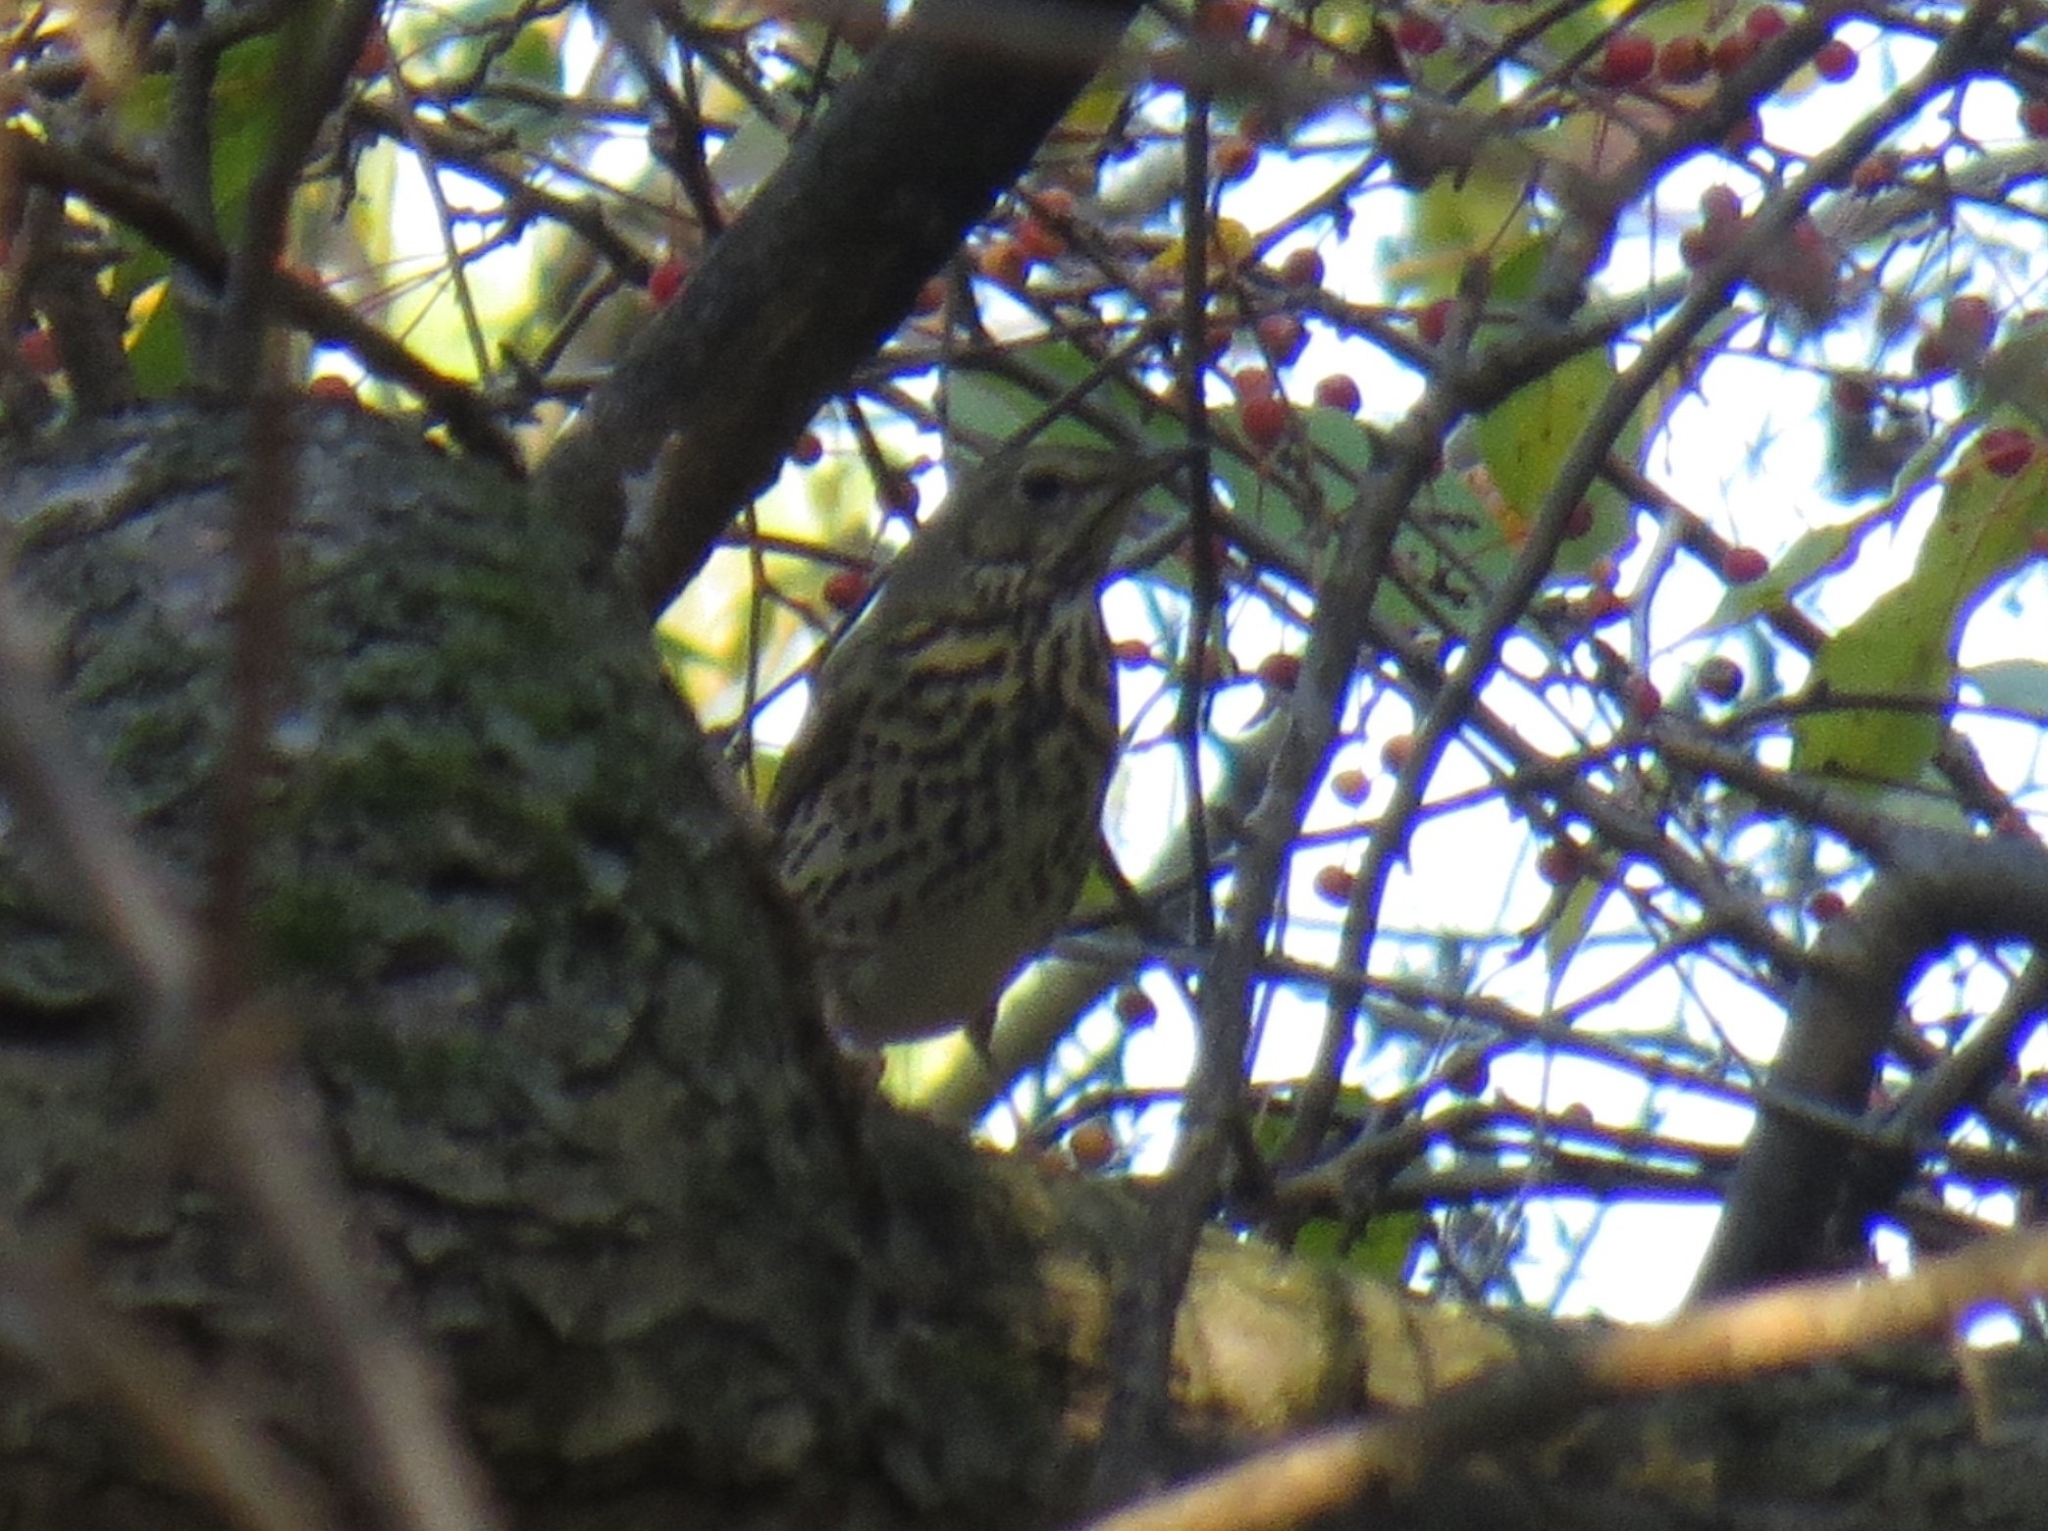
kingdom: Animalia
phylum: Chordata
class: Aves
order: Passeriformes
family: Turdidae
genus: Turdus
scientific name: Turdus philomelos
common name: Song thrush
